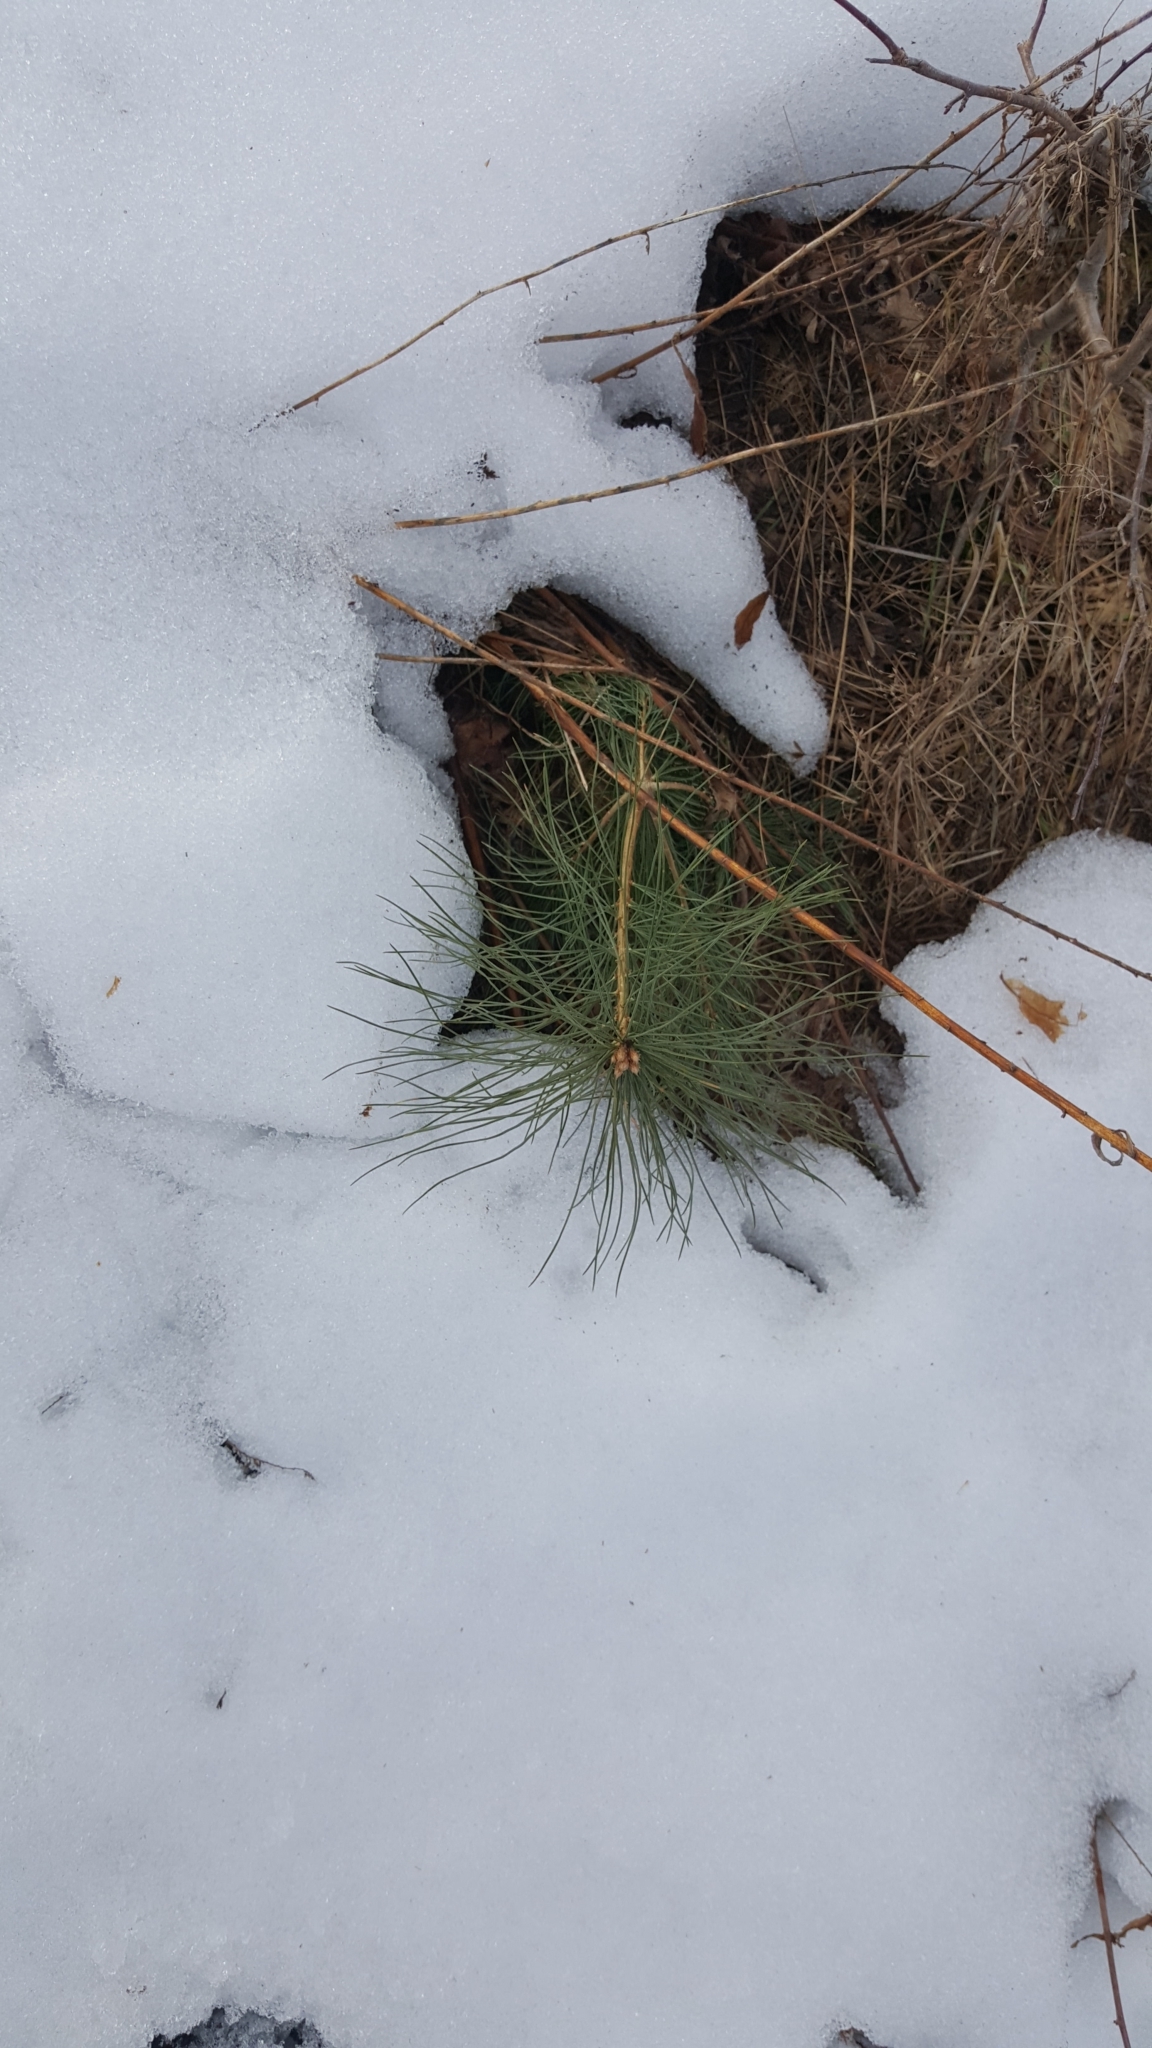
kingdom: Plantae
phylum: Tracheophyta
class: Pinopsida
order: Pinales
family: Pinaceae
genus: Pinus
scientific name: Pinus strobus
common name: Weymouth pine
